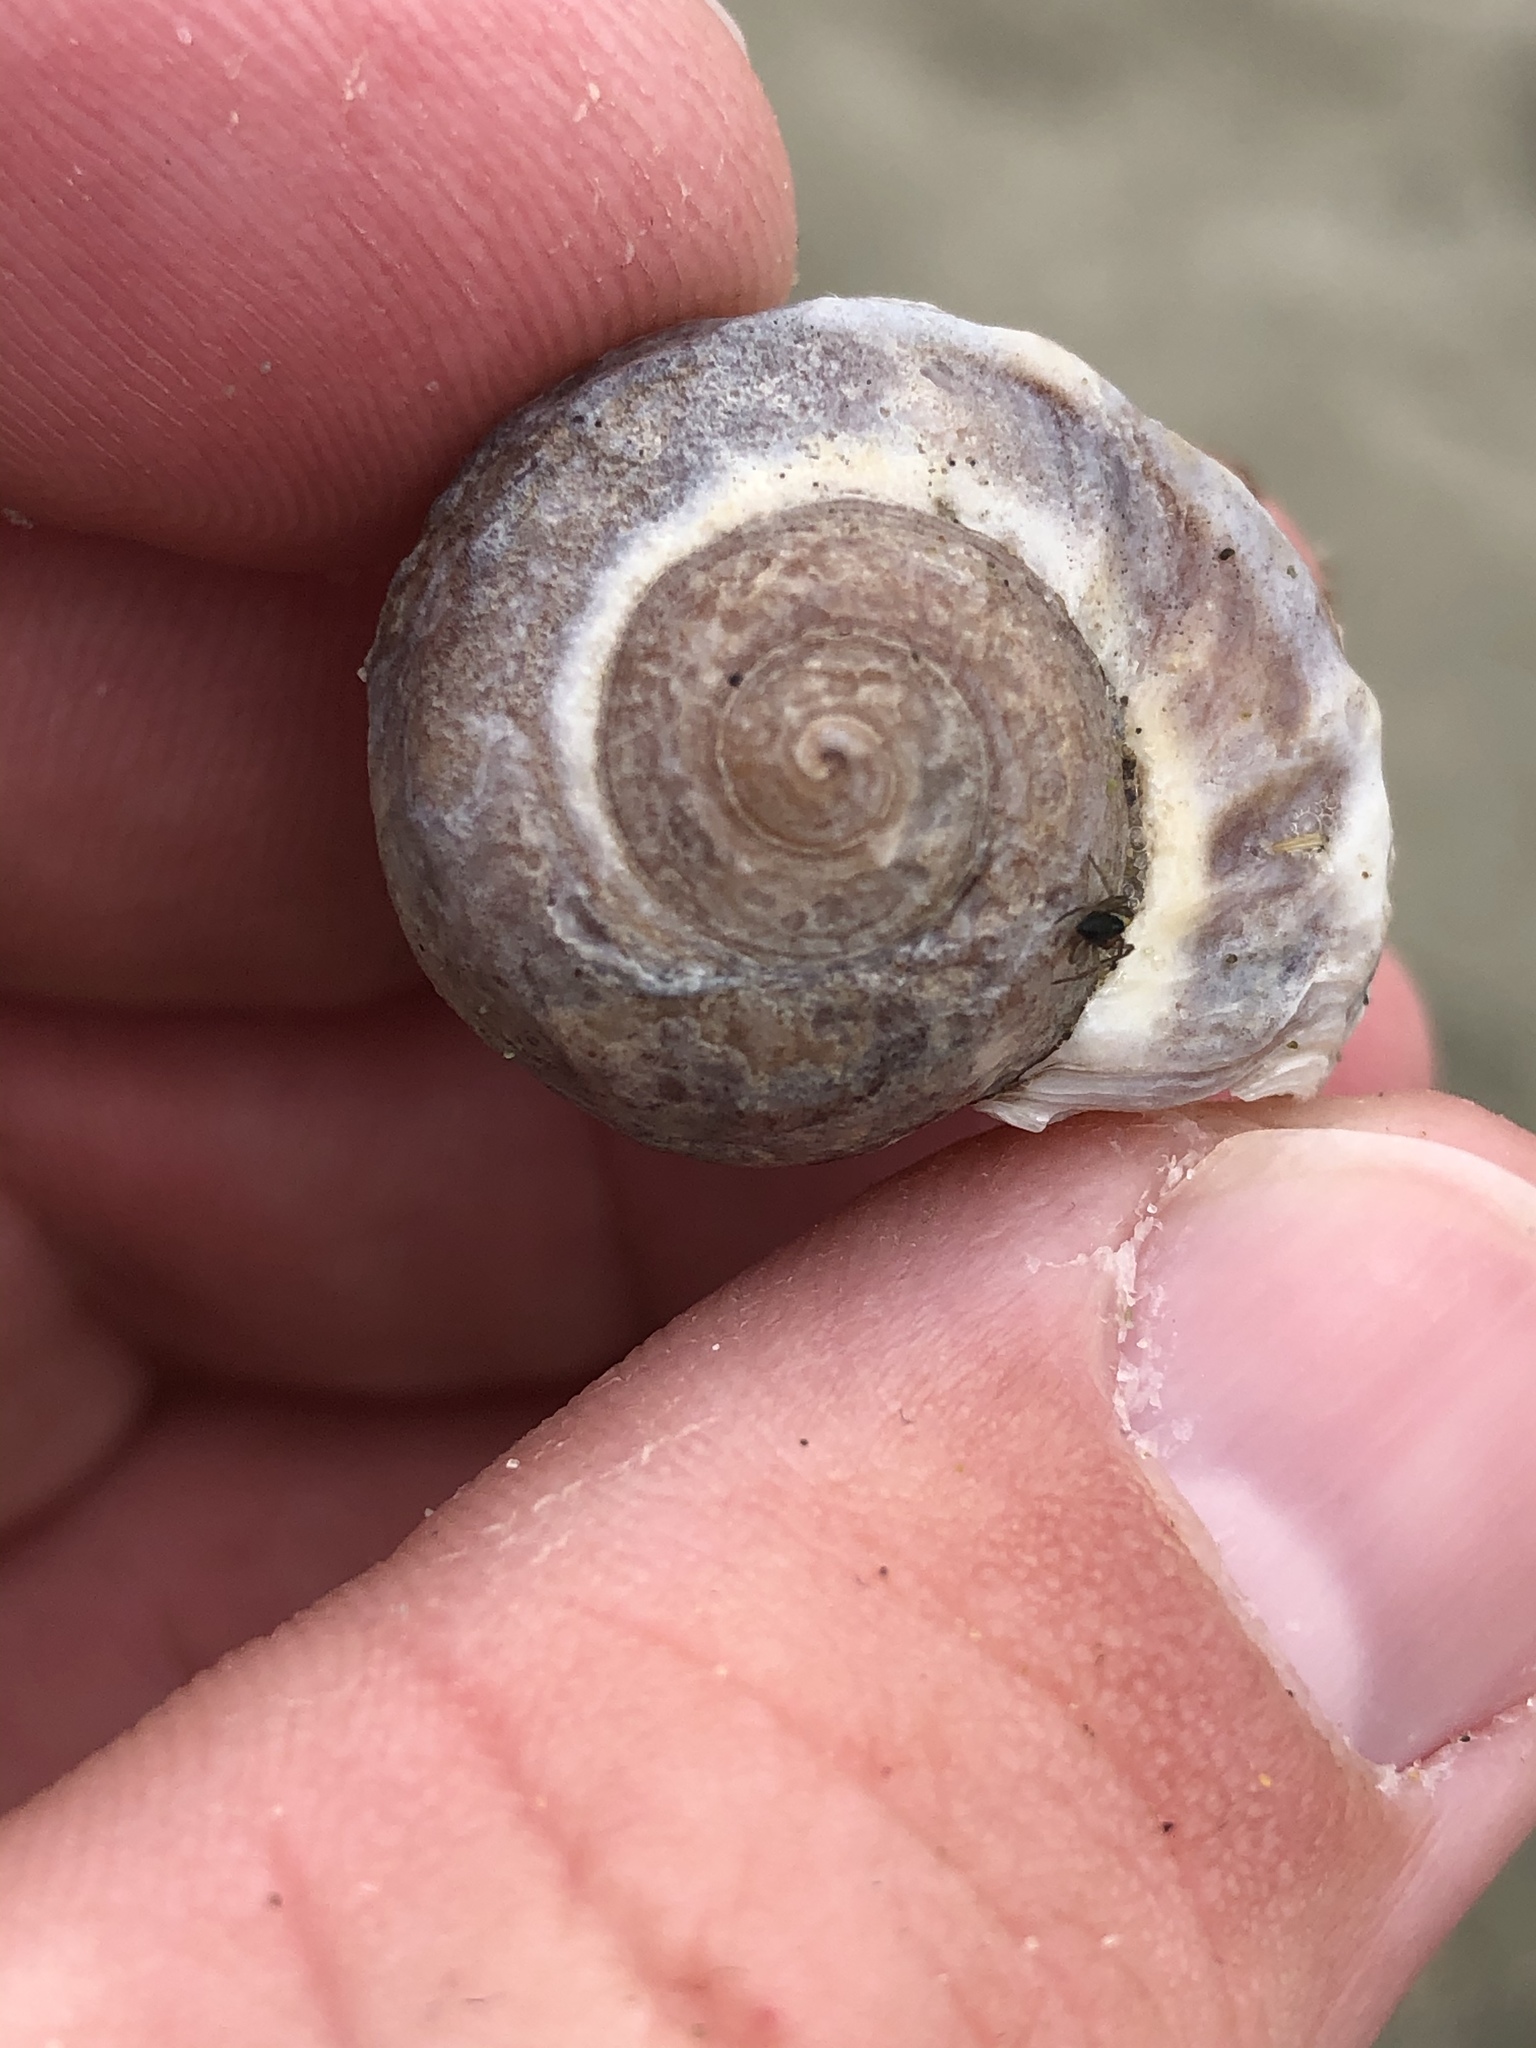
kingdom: Animalia
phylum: Mollusca
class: Gastropoda
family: Amphibolidae
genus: Amphibola
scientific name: Amphibola crenata
